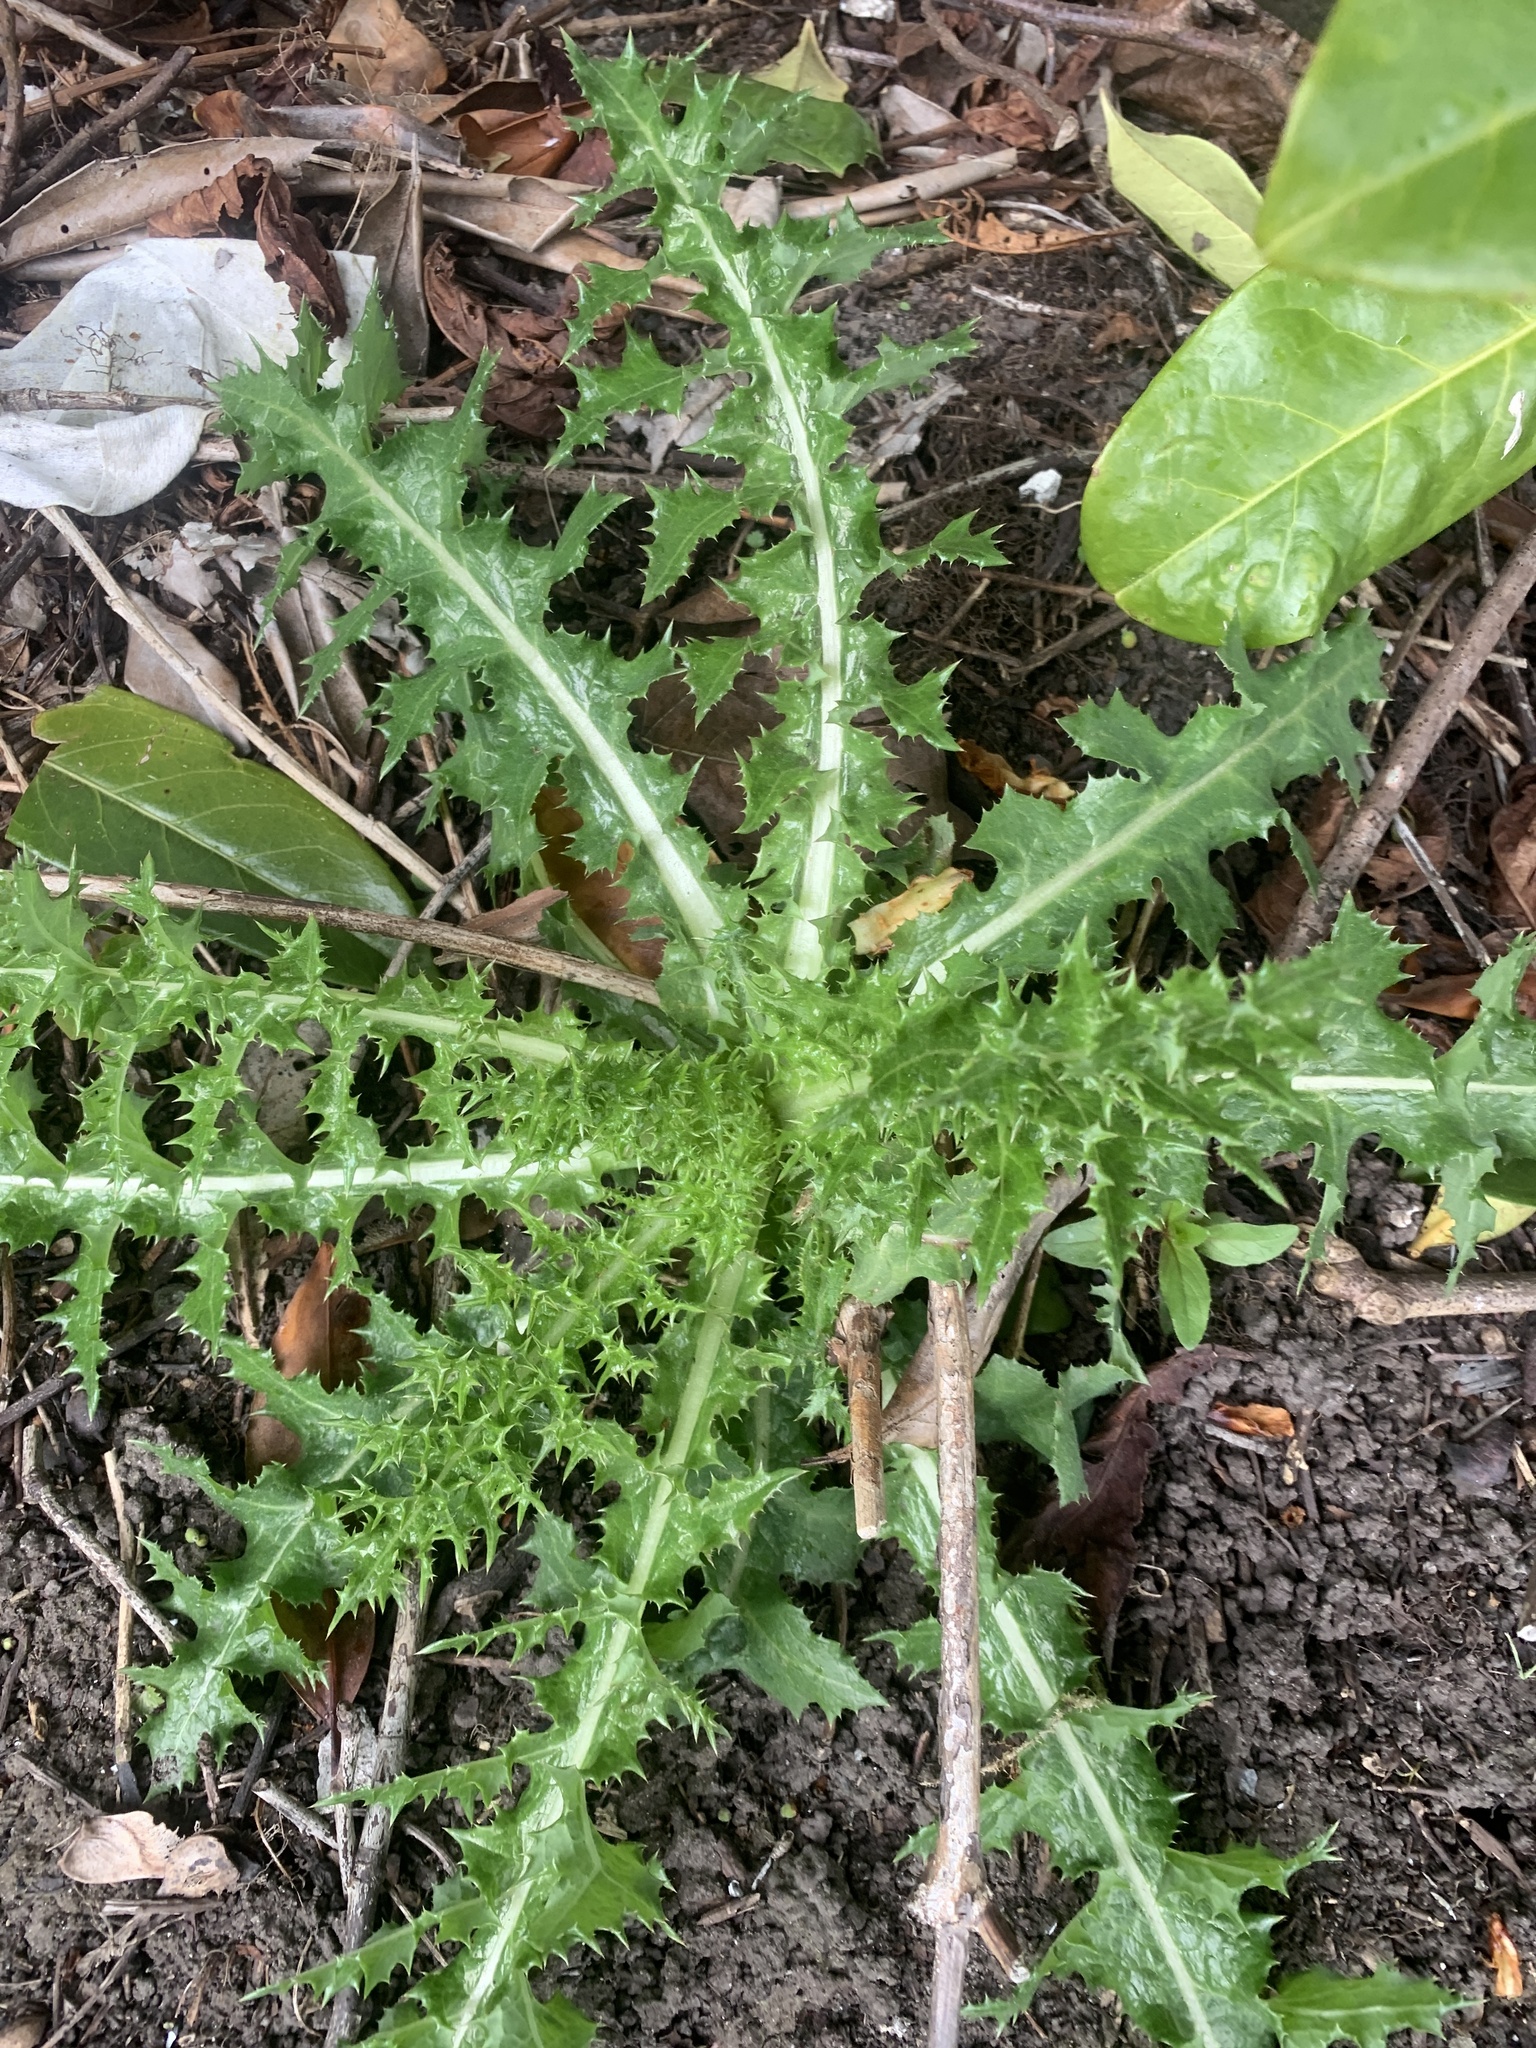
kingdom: Plantae
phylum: Tracheophyta
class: Magnoliopsida
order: Asterales
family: Asteraceae
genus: Cirsium
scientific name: Cirsium arvense
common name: Creeping thistle
